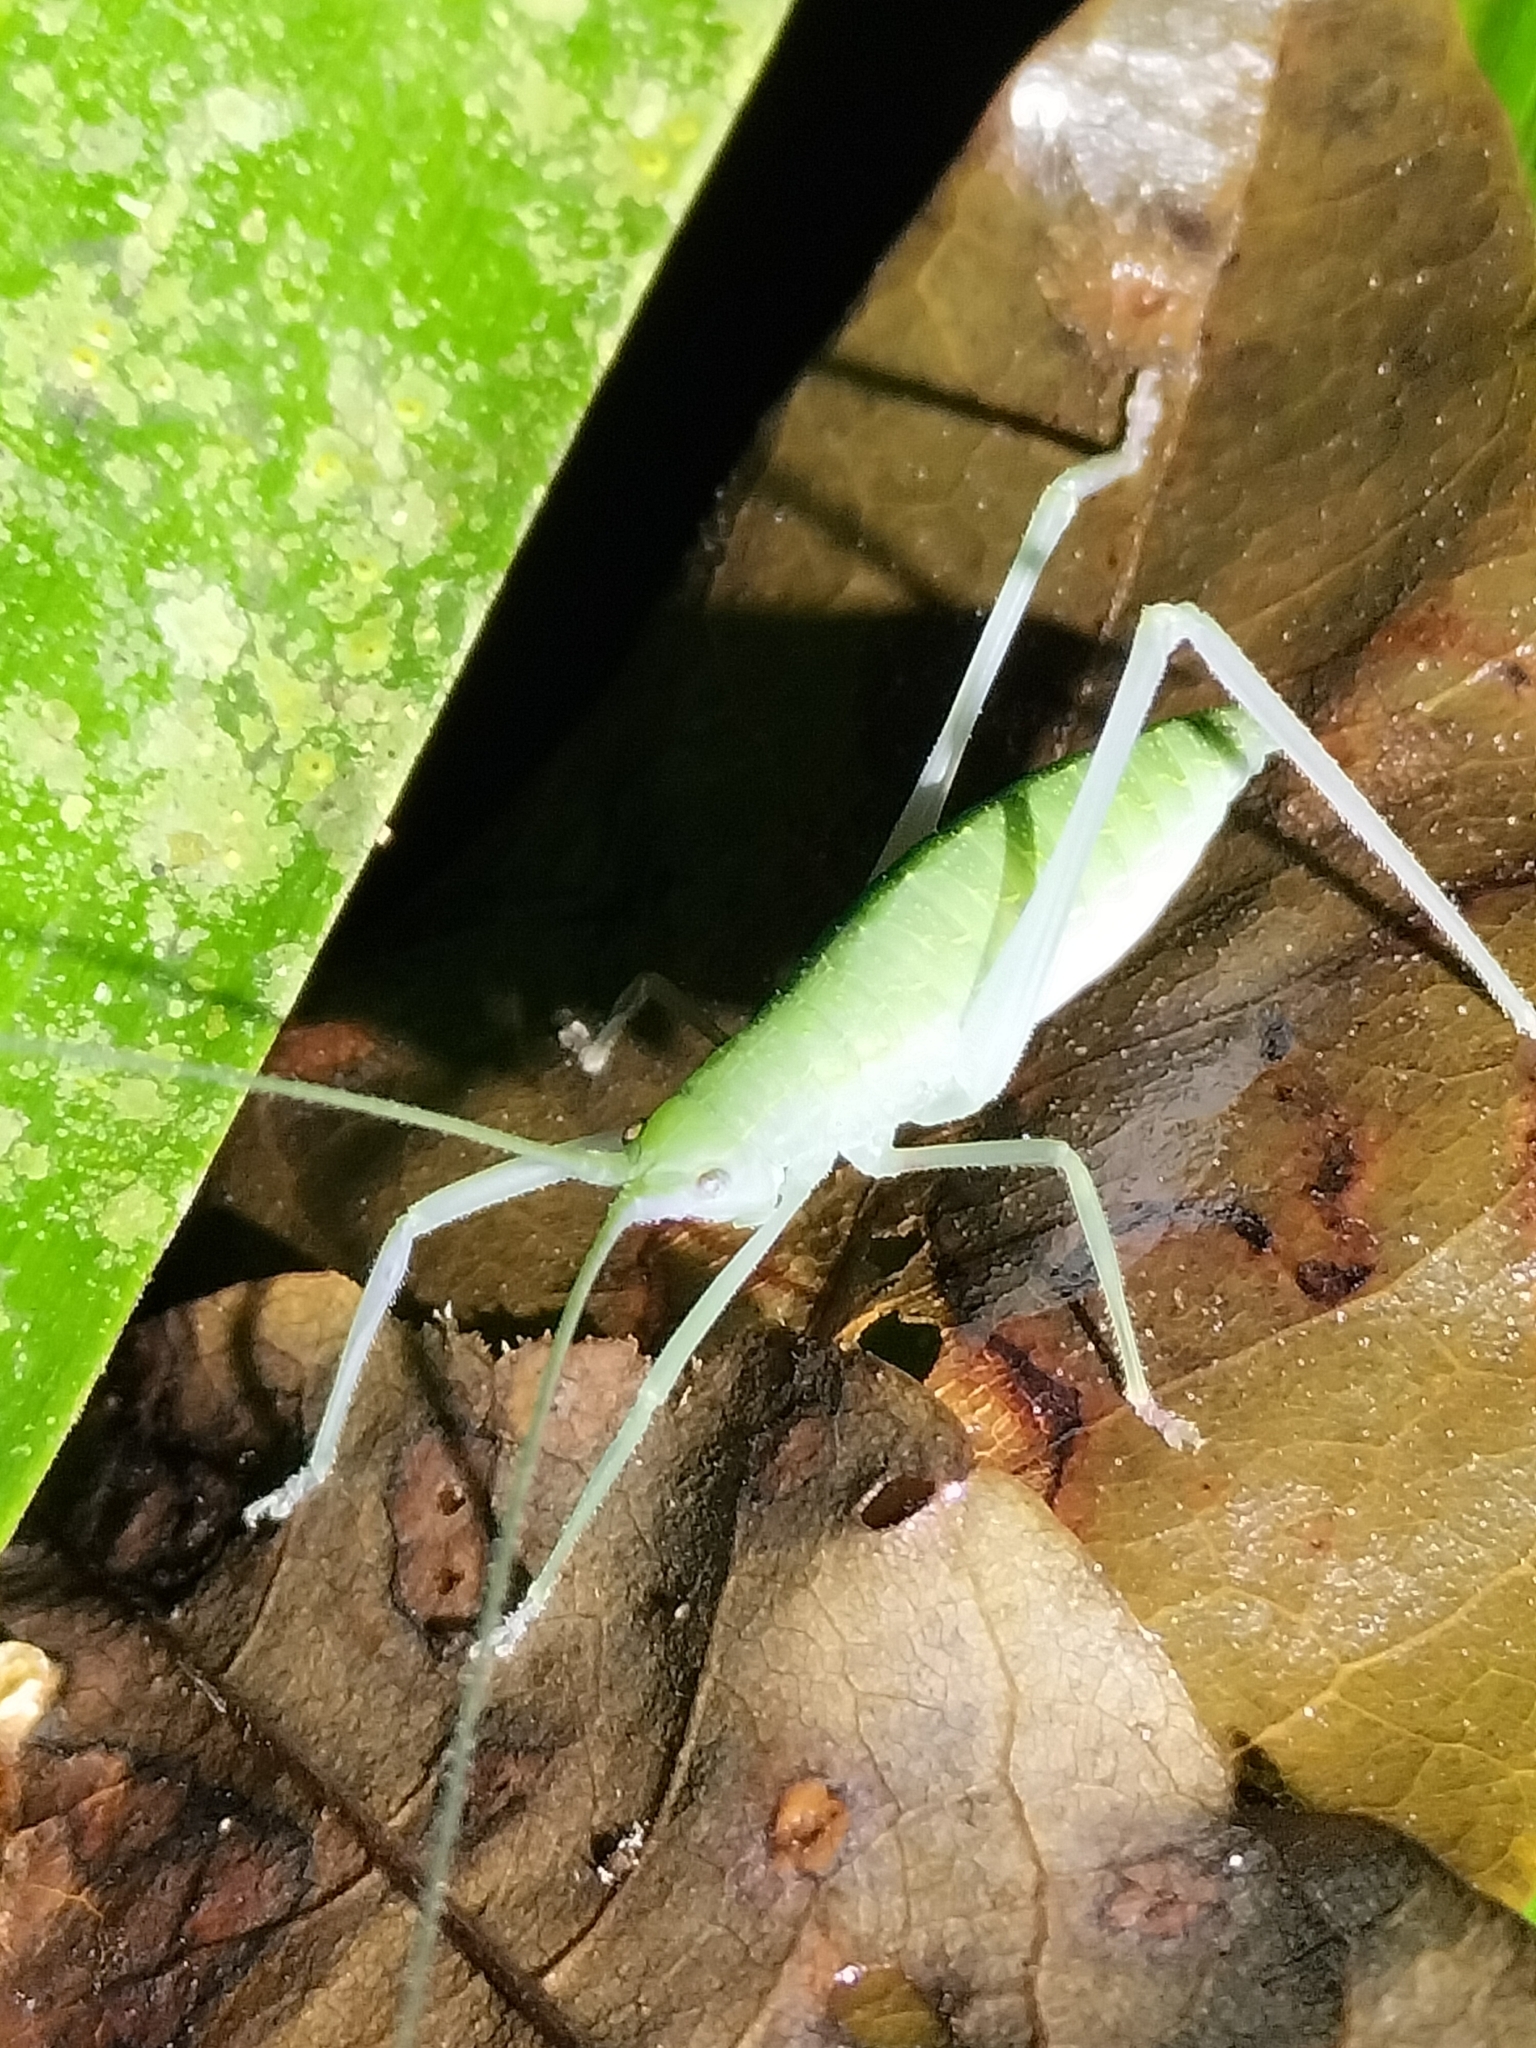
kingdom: Animalia
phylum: Arthropoda
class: Insecta
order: Orthoptera
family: Tettigoniidae
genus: Mastighaphoides
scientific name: Mastighaphoides tuberculatus
